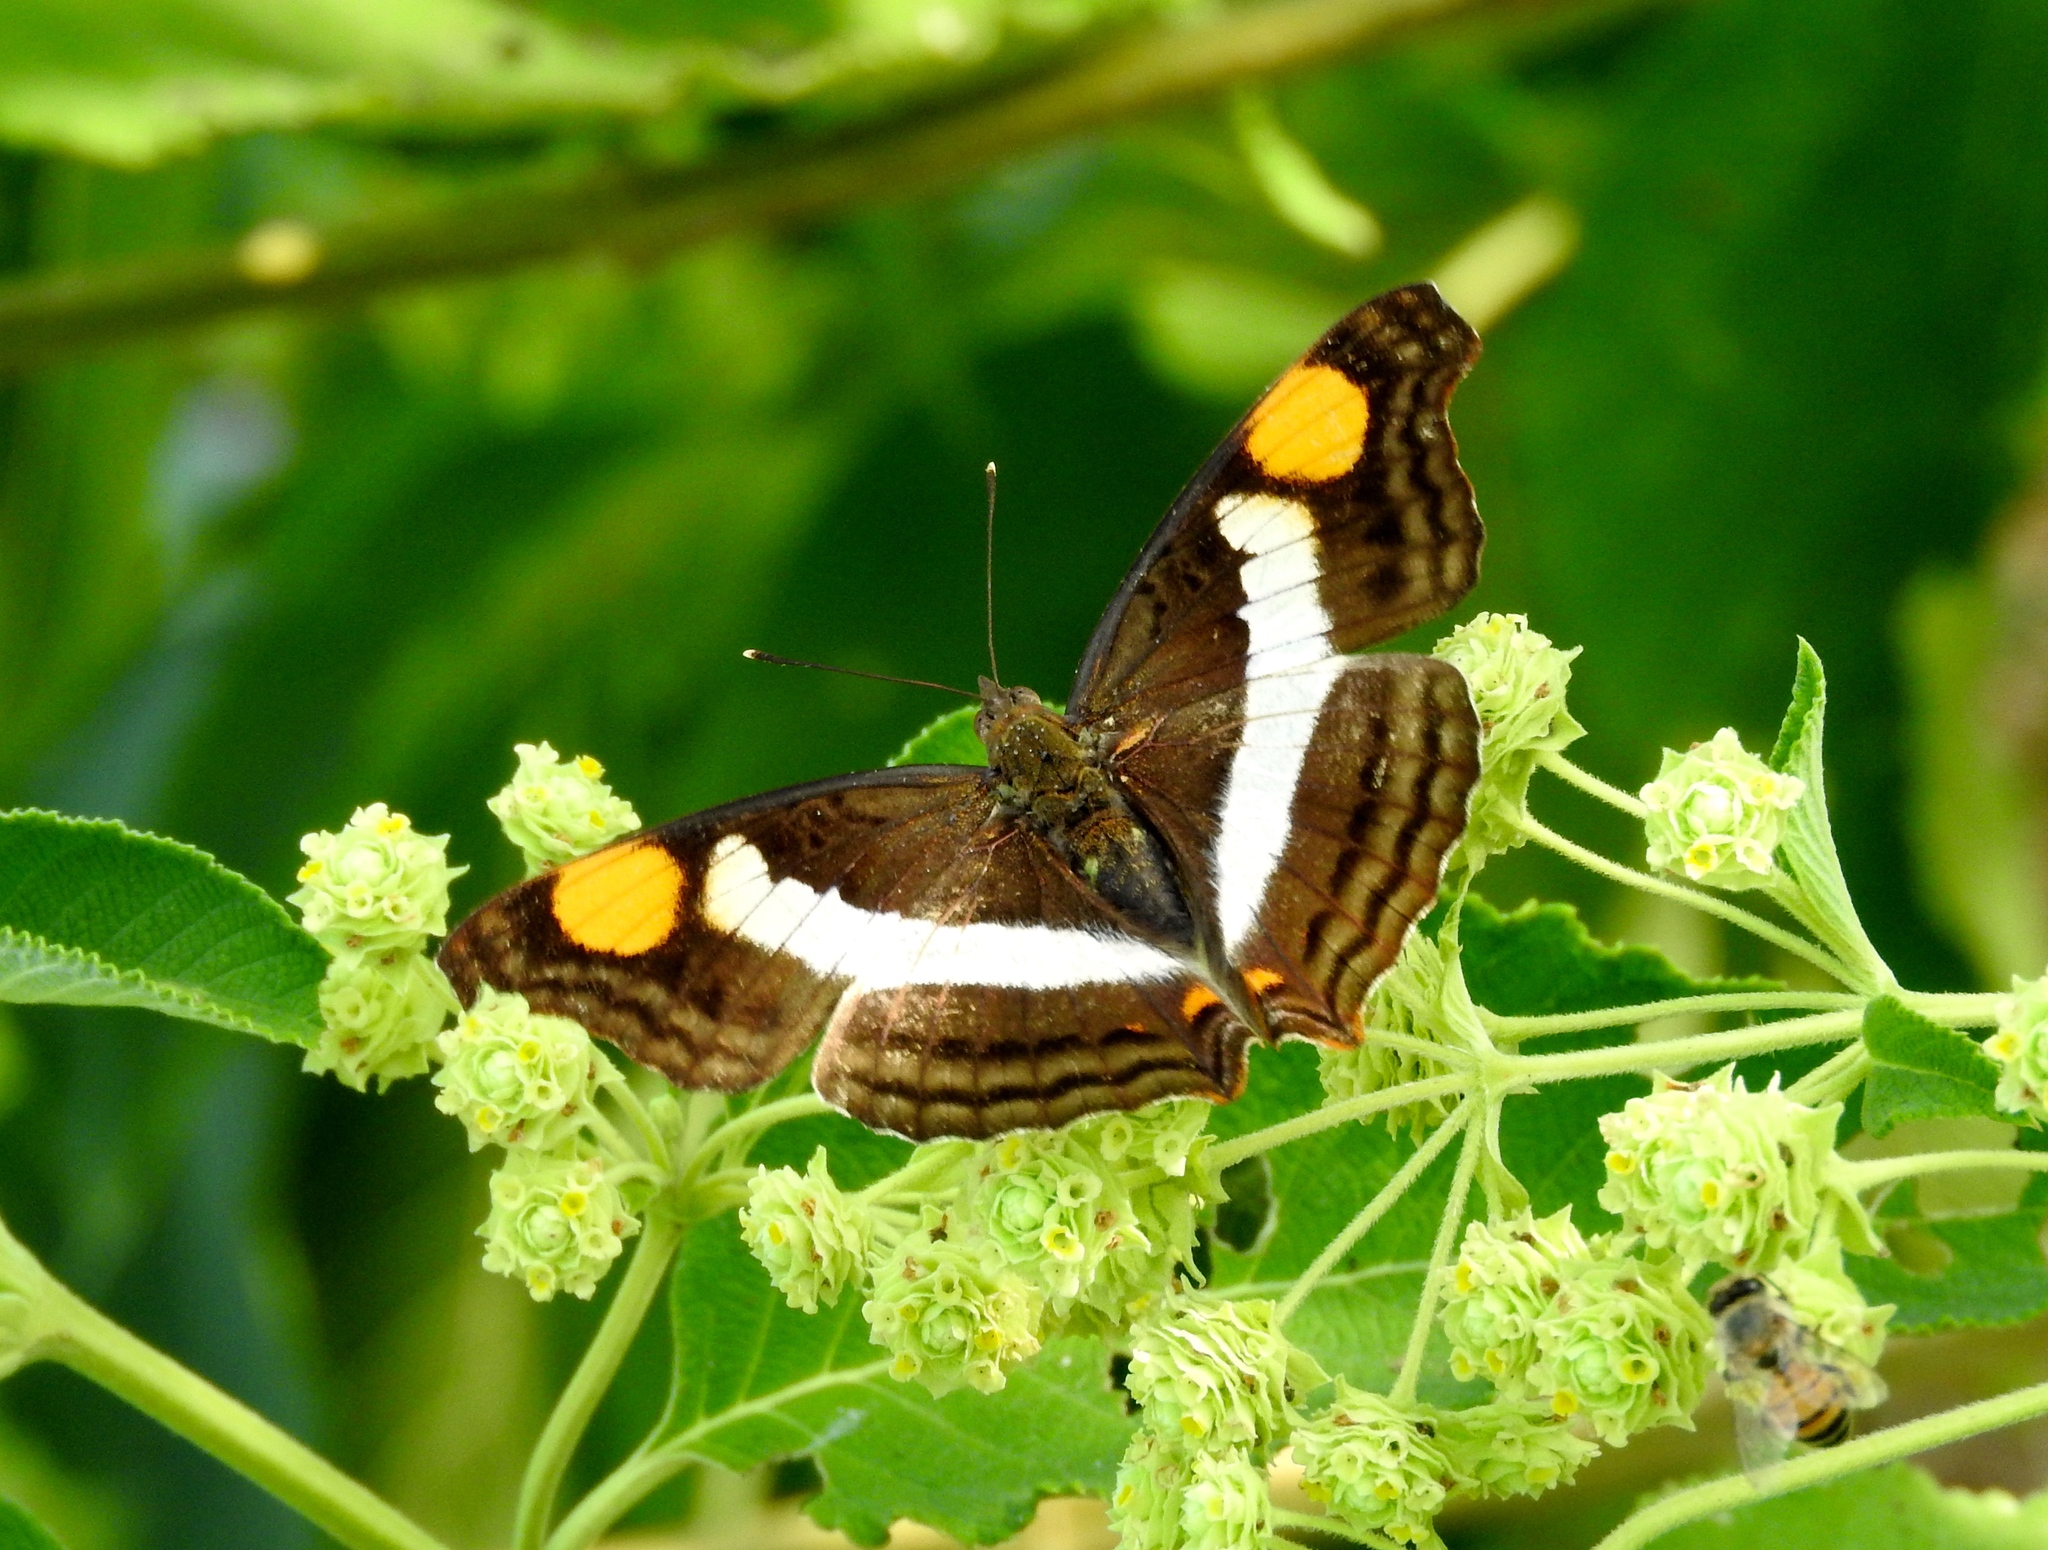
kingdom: Animalia
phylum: Arthropoda
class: Insecta
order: Lepidoptera
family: Nymphalidae
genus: Doxocopa
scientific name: Doxocopa laure
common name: Silver emperor
